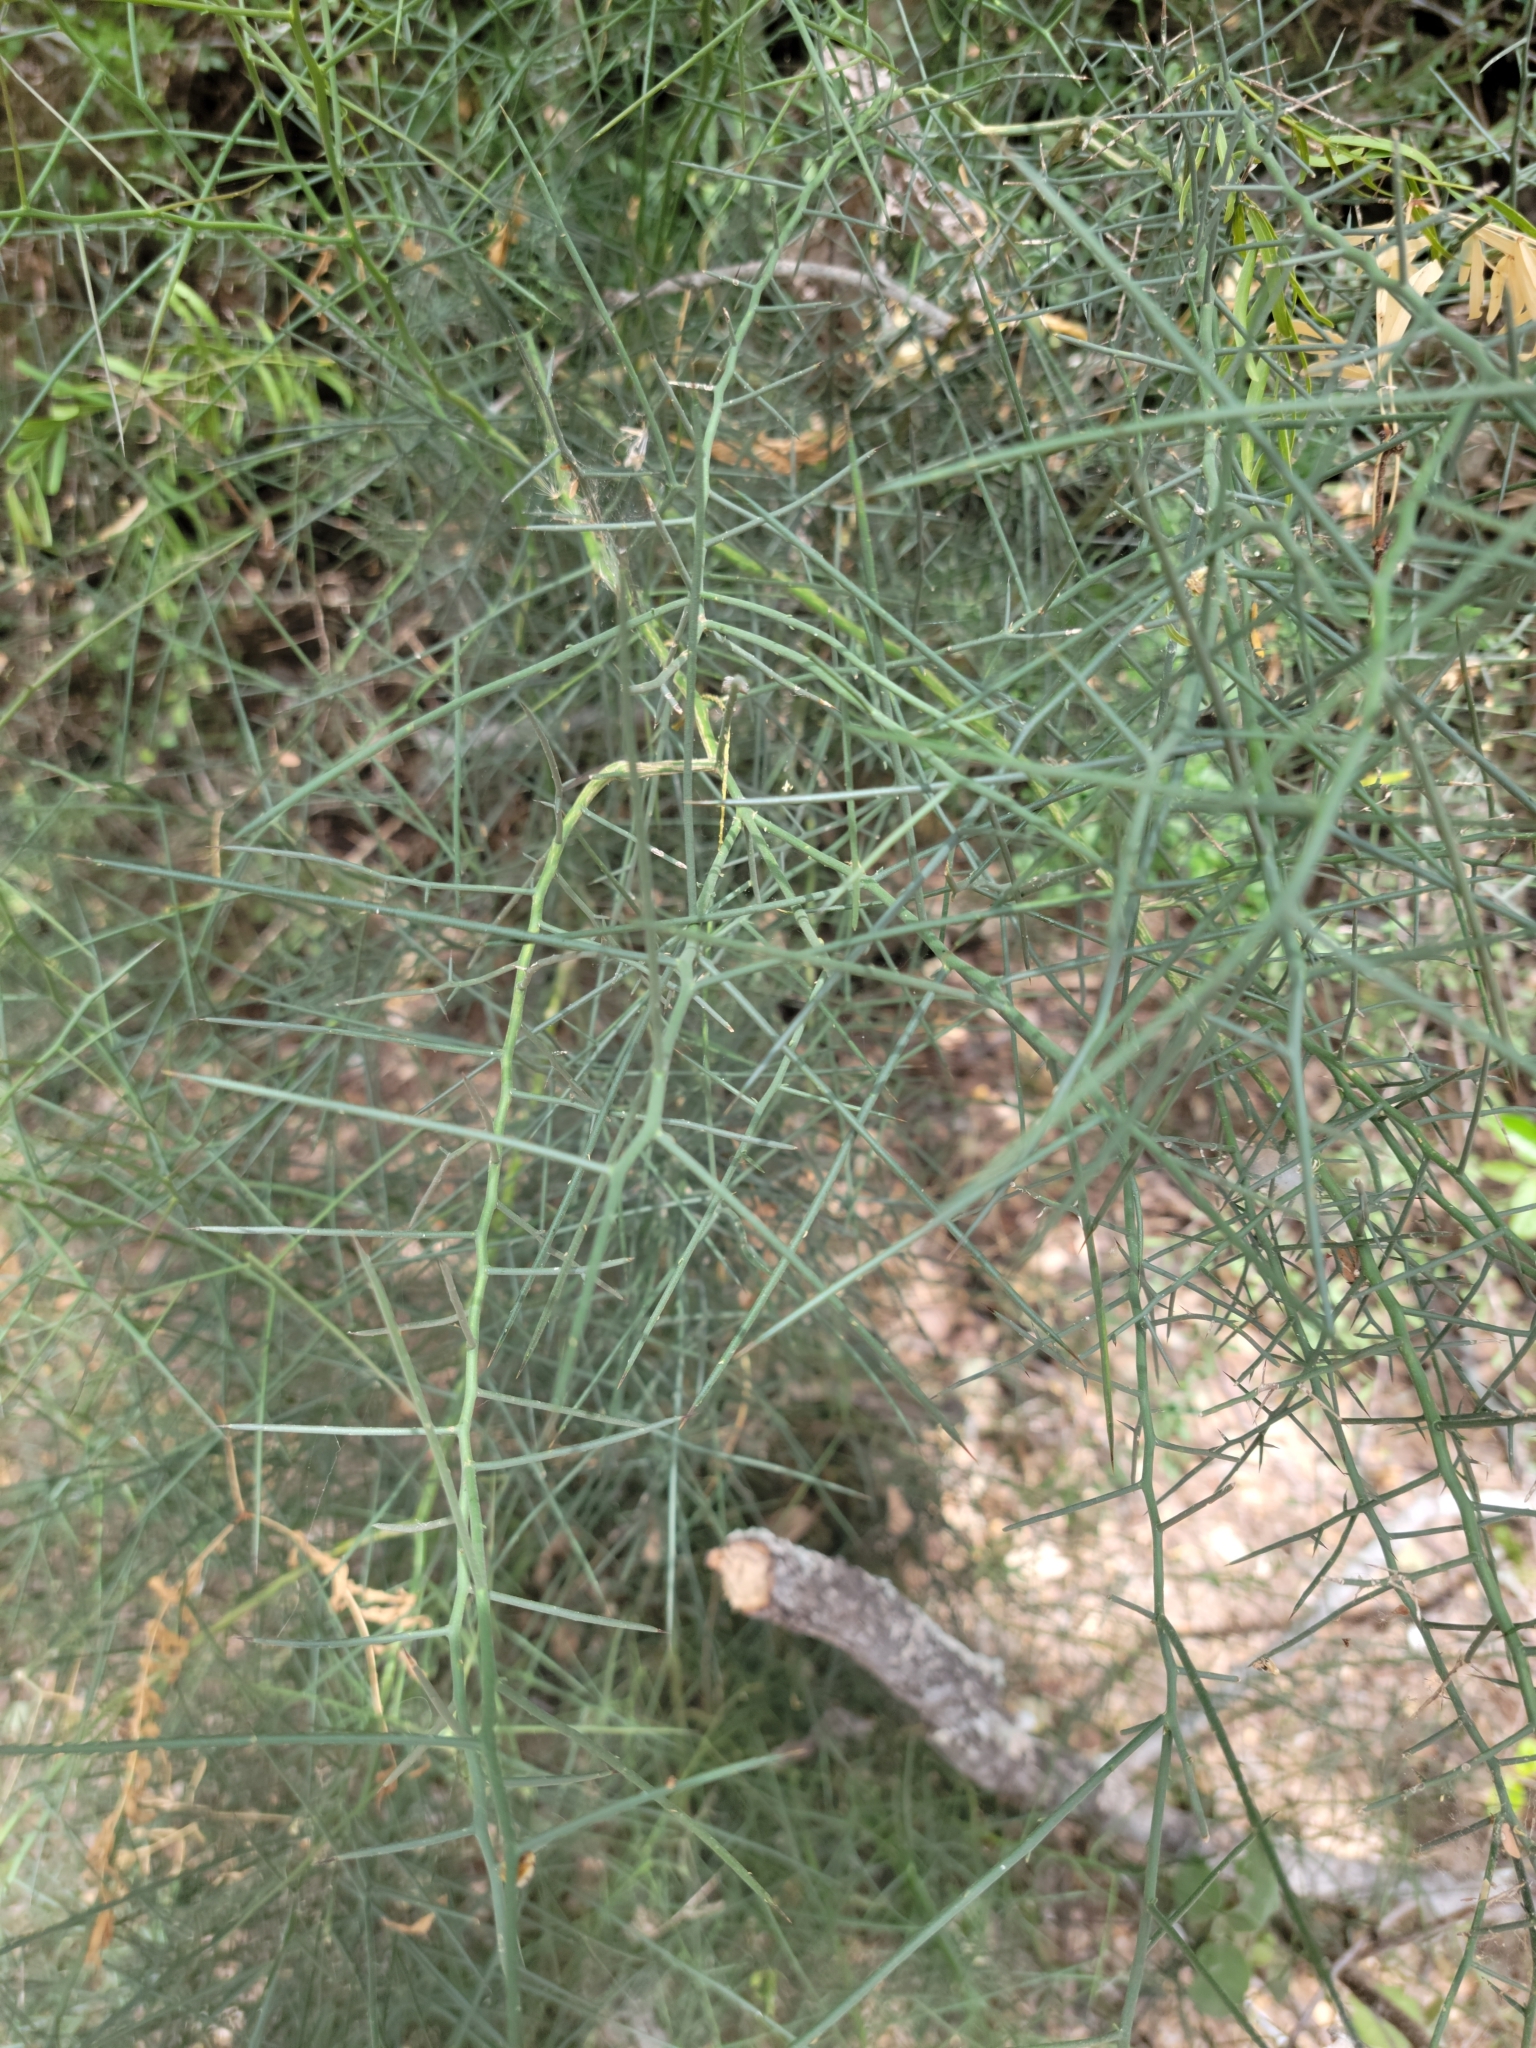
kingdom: Plantae
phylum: Tracheophyta
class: Magnoliopsida
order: Brassicales
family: Koeberliniaceae
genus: Koeberlinia
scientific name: Koeberlinia spinosa
